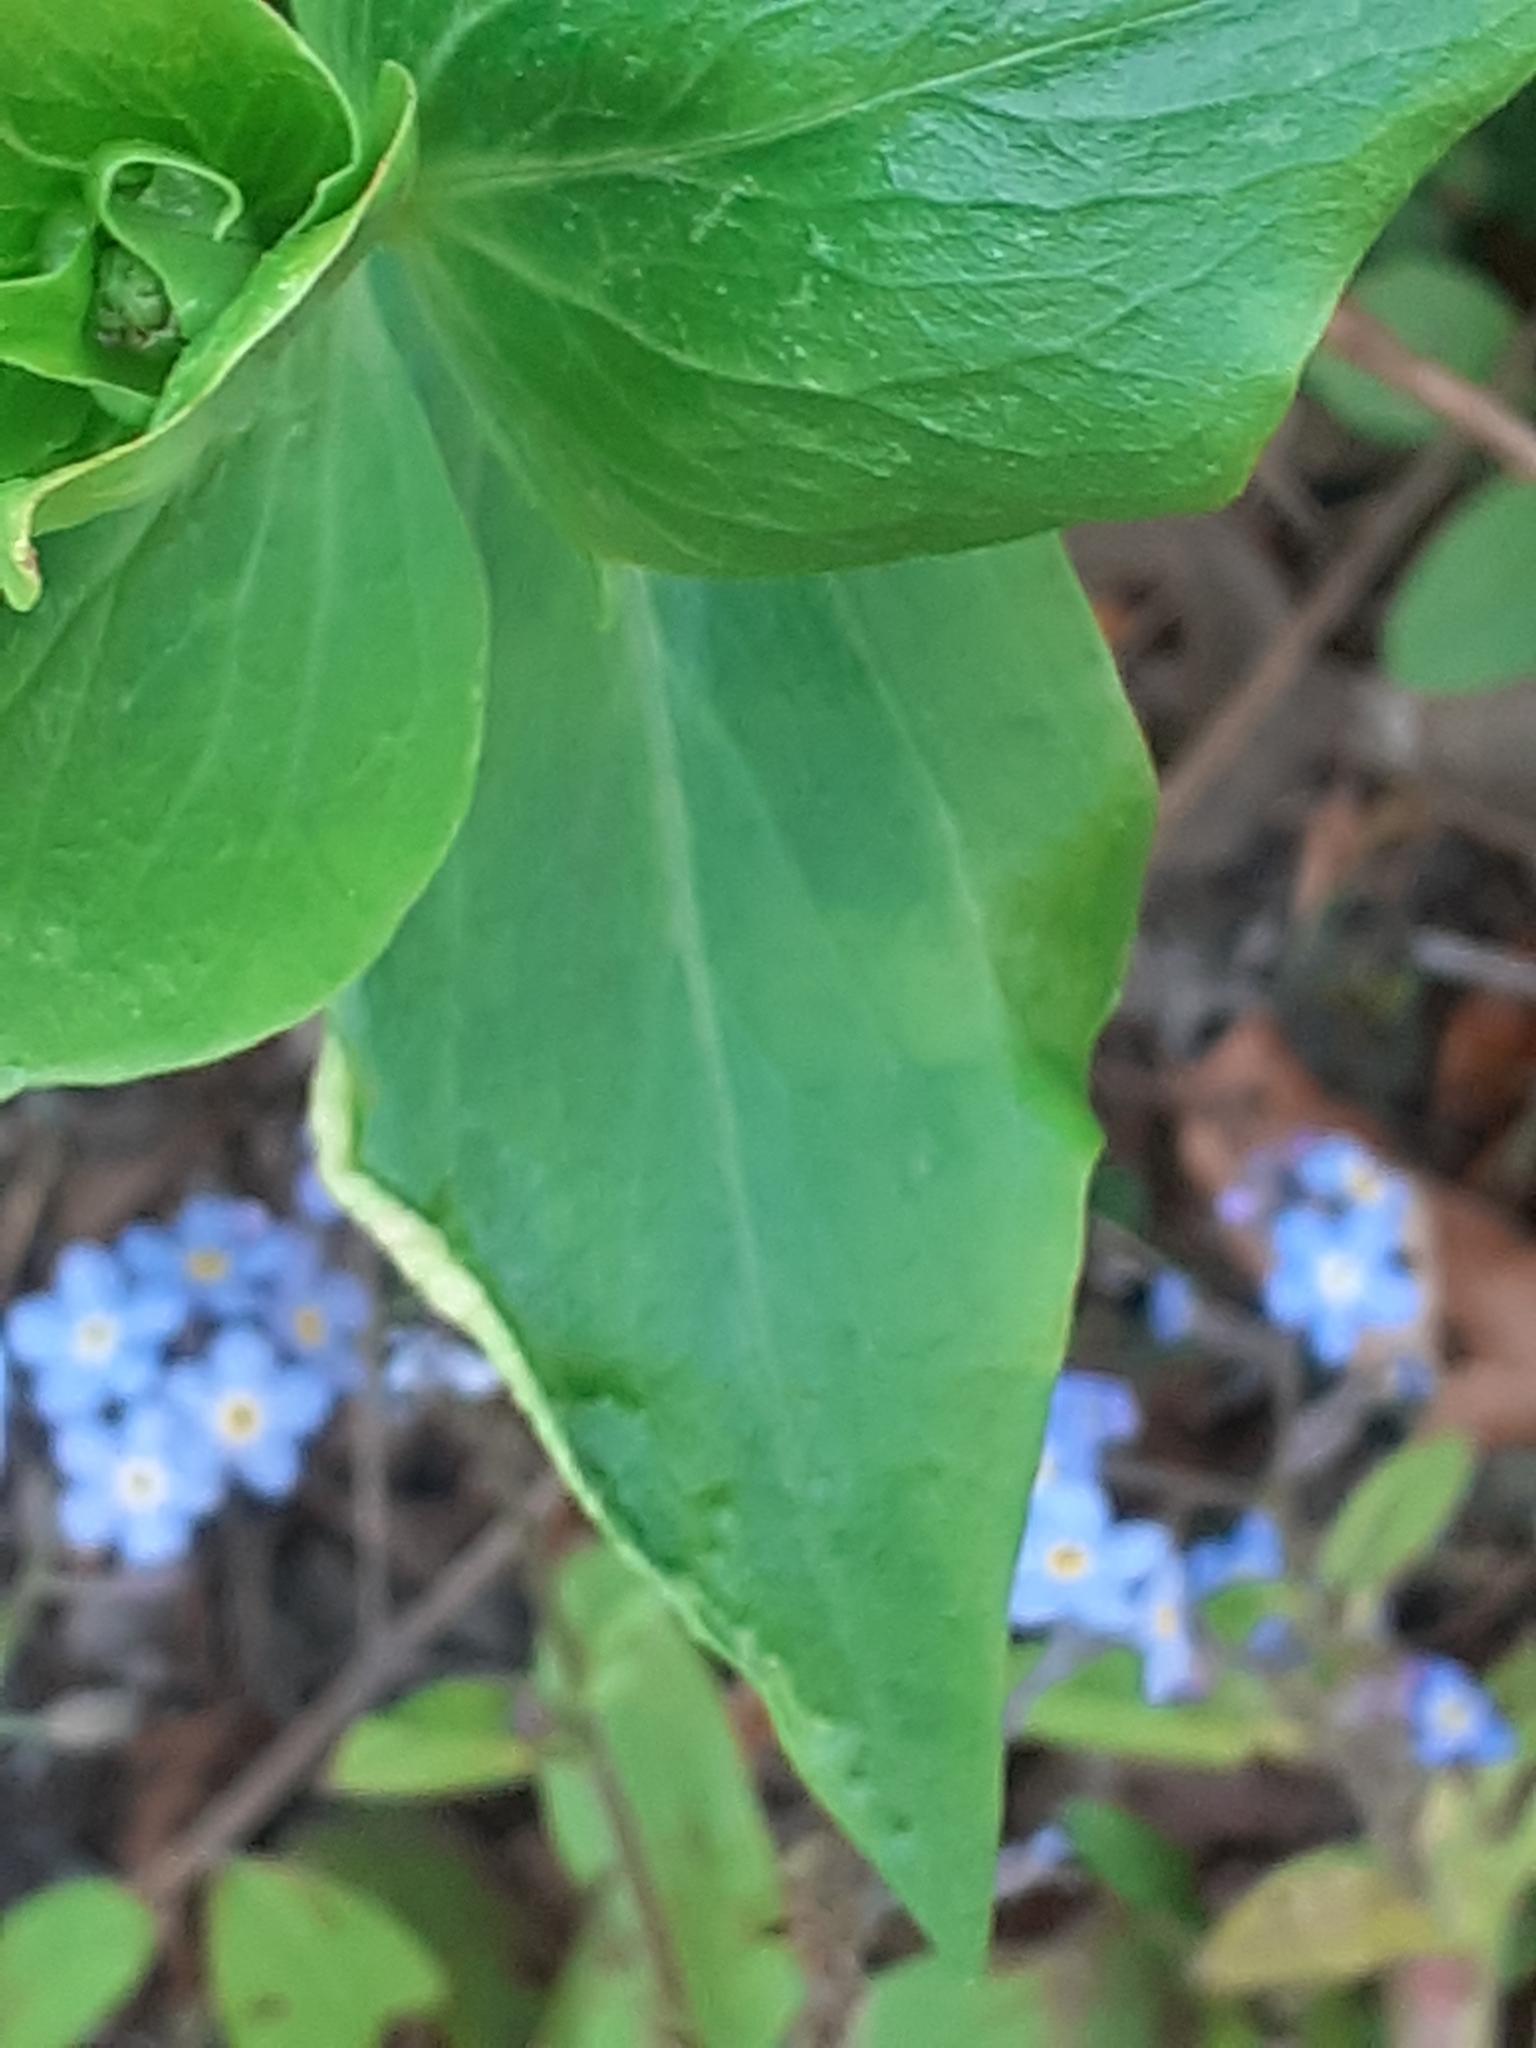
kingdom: Animalia
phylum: Arthropoda
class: Insecta
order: Hemiptera
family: Triozidae
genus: Trioza
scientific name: Trioza centranthi
